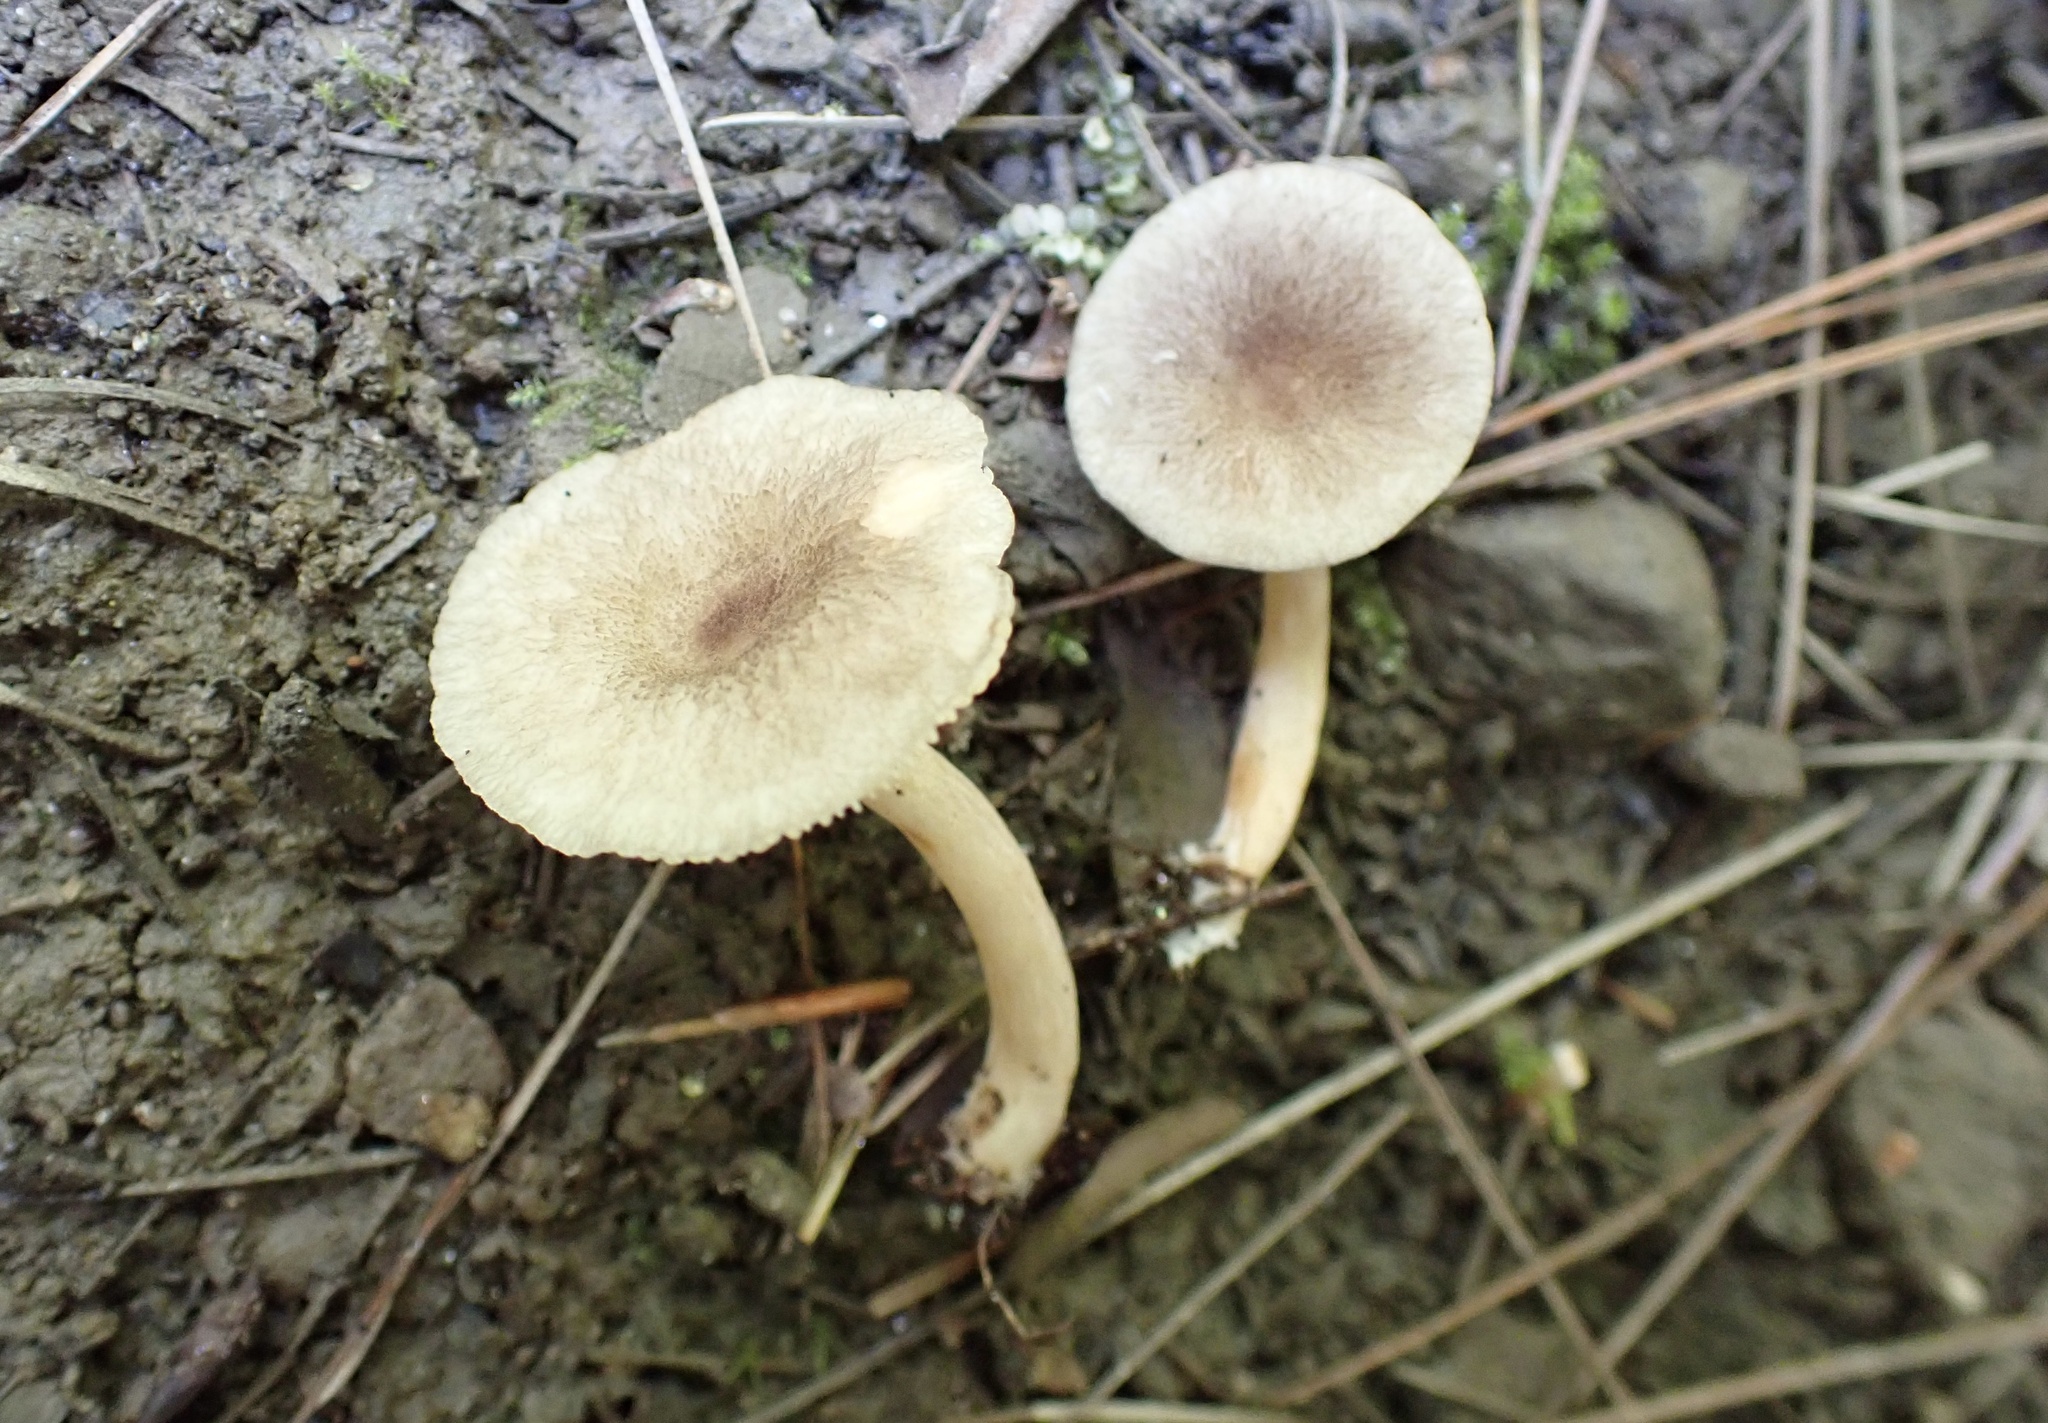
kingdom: Fungi
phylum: Basidiomycota
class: Agaricomycetes
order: Russulales
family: Russulaceae
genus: Lactarius
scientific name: Lactarius griseus
